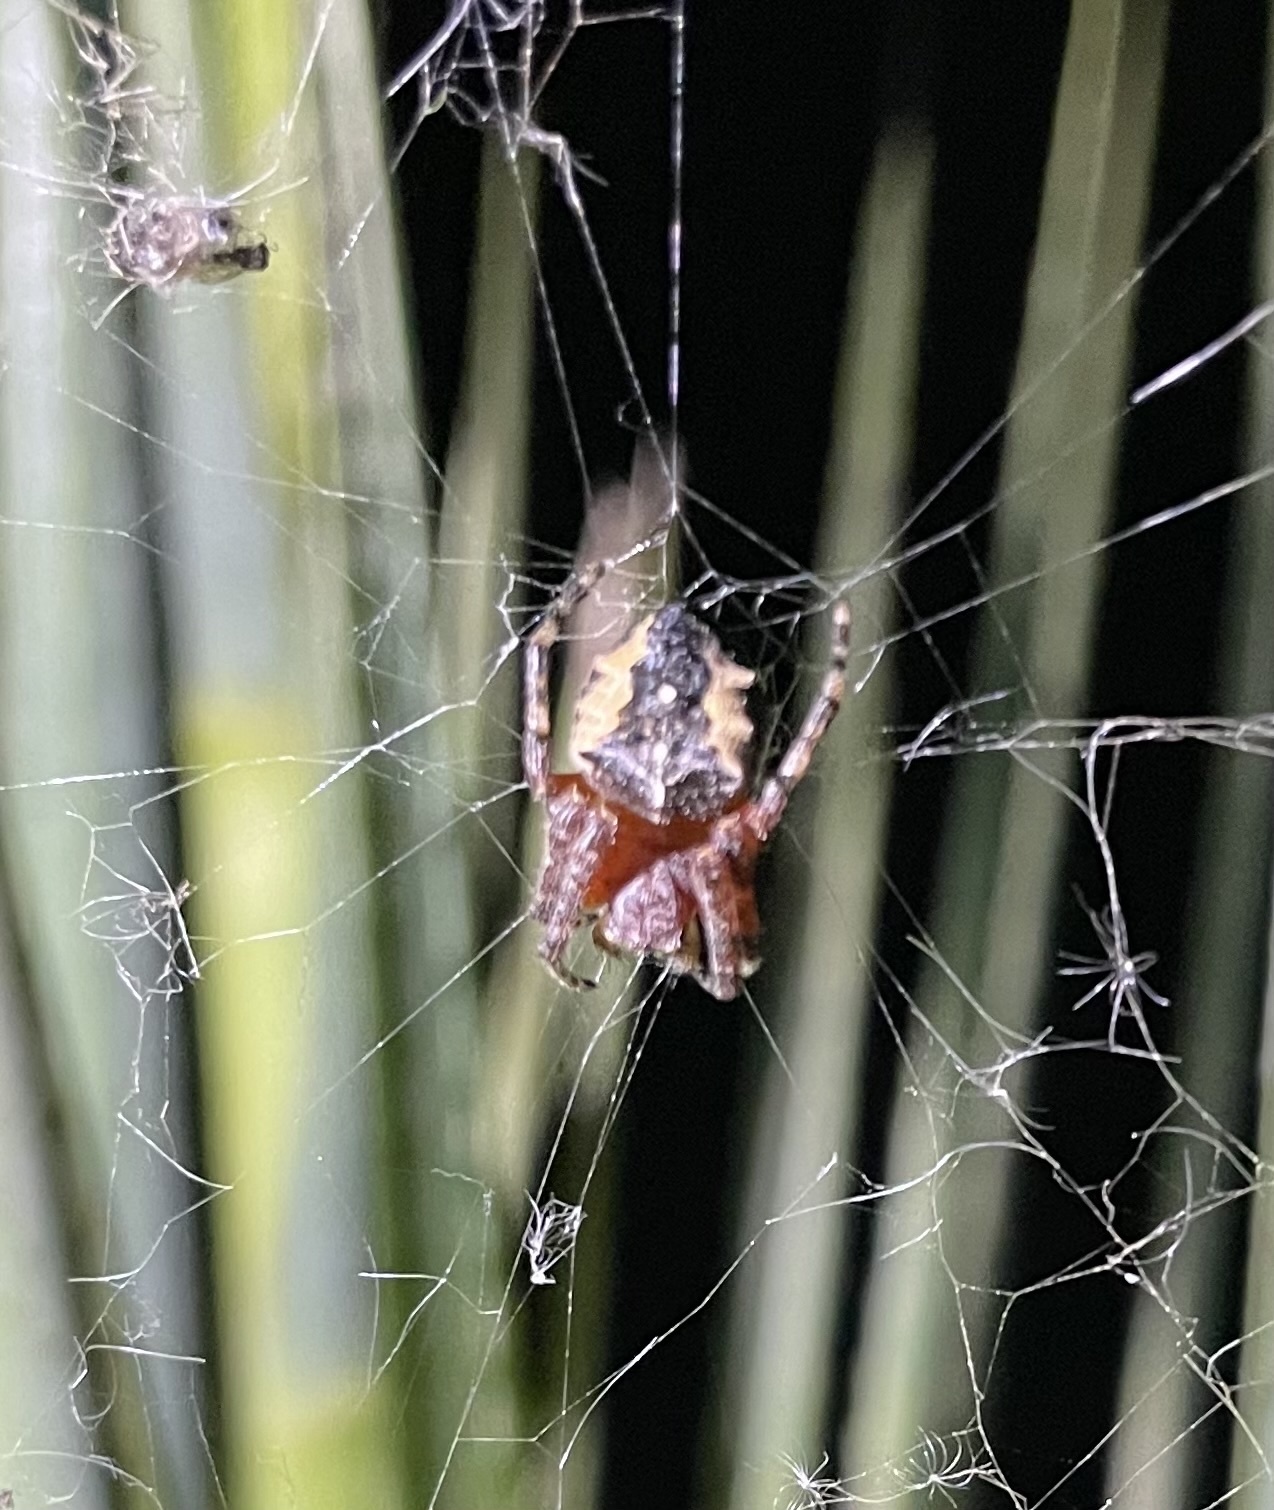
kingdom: Animalia
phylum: Arthropoda
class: Arachnida
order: Araneae
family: Araneidae
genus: Parawixia
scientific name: Parawixia undulata
